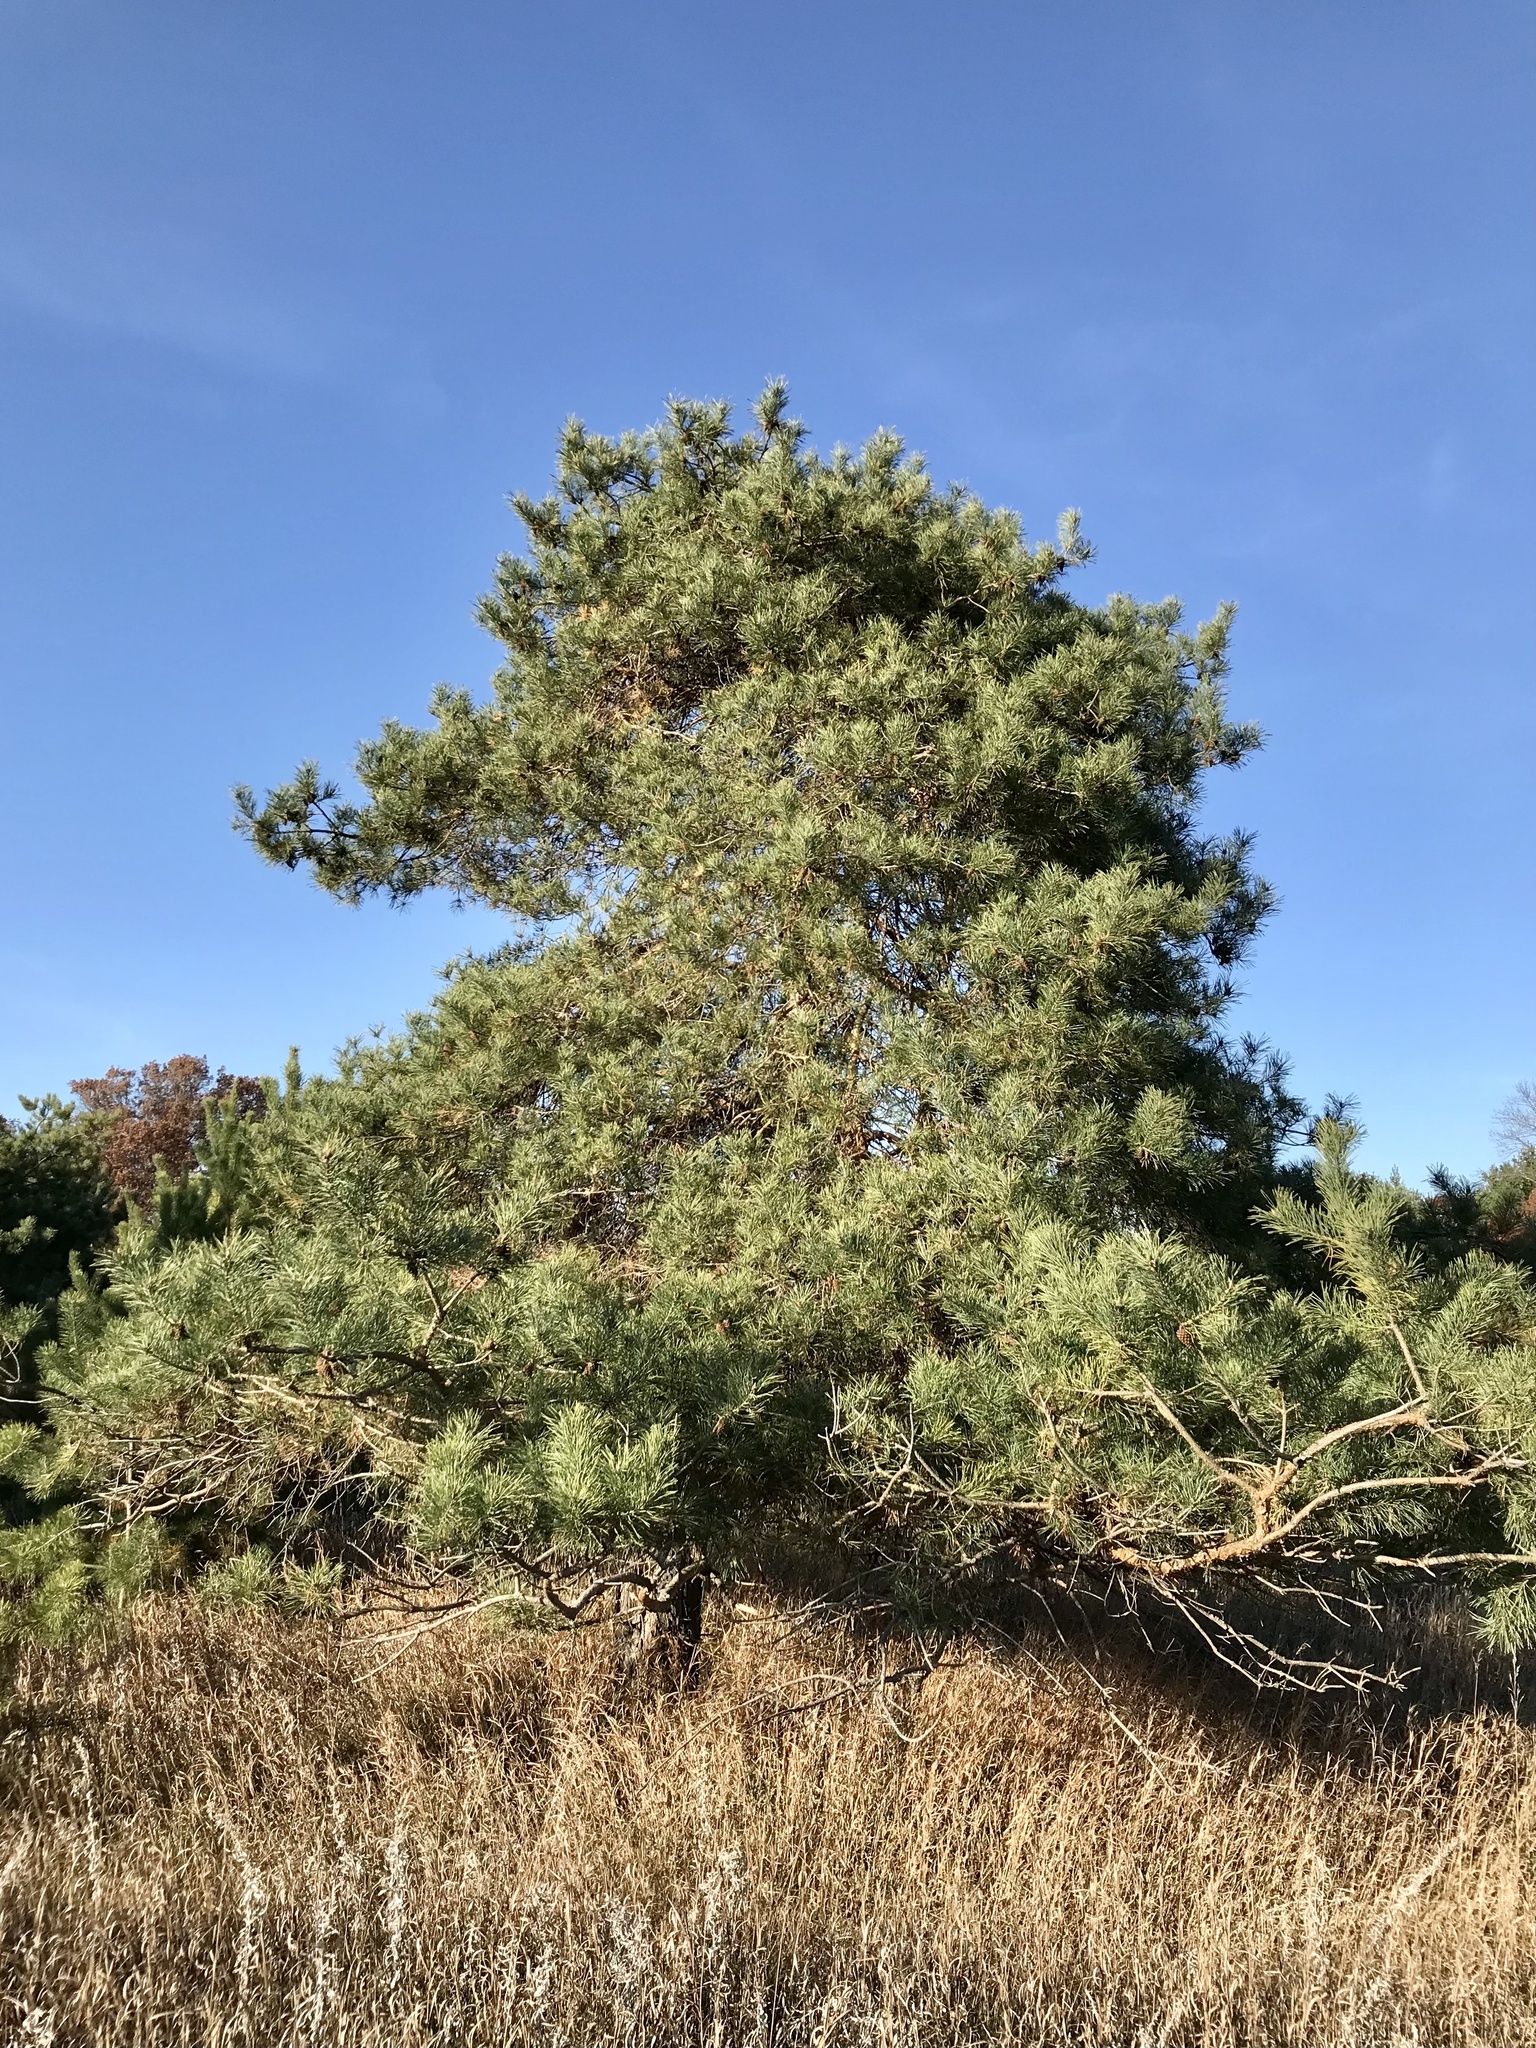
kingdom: Plantae
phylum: Tracheophyta
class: Pinopsida
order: Pinales
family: Pinaceae
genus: Pinus
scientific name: Pinus sylvestris
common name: Scots pine
